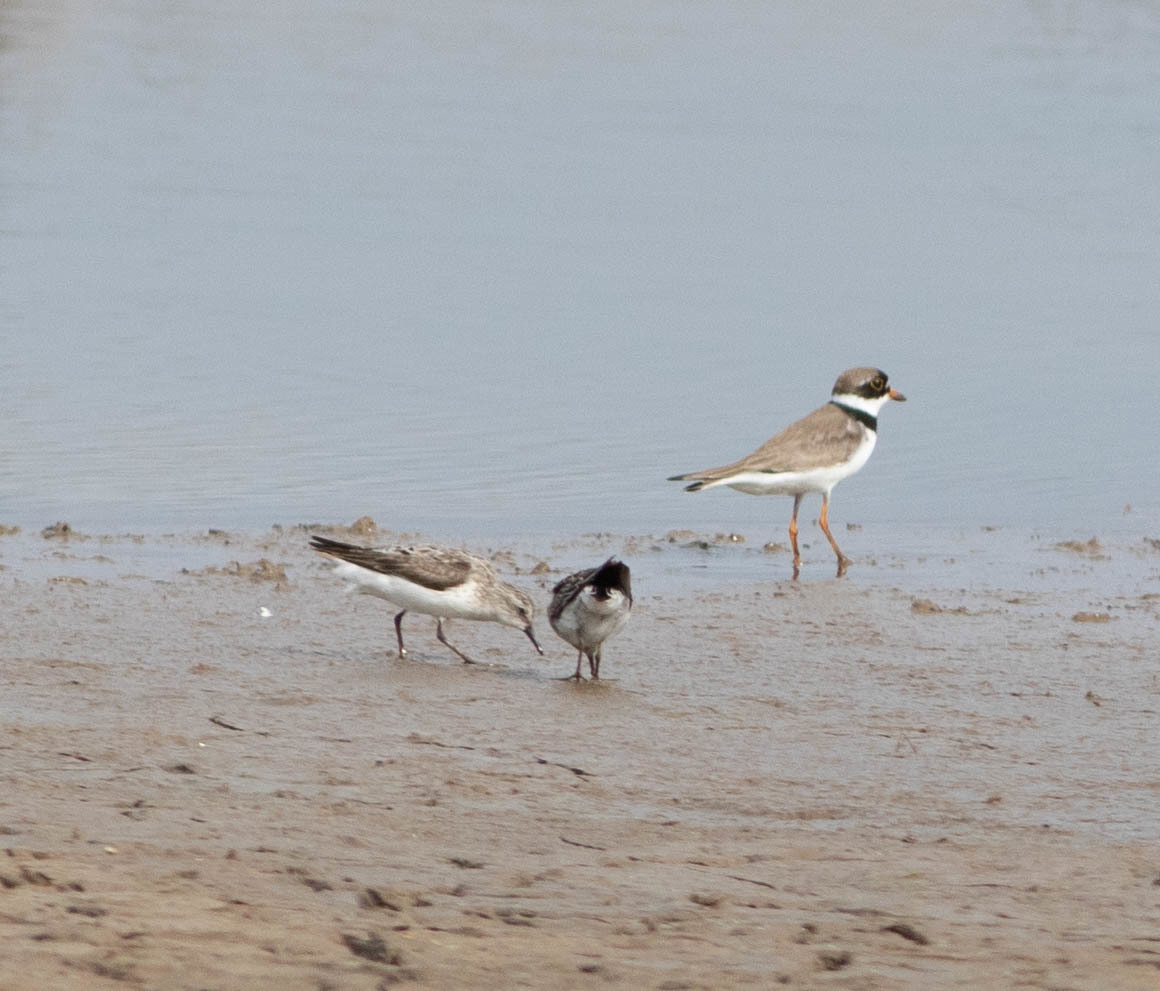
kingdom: Animalia
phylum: Chordata
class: Aves
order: Charadriiformes
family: Charadriidae
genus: Charadrius
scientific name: Charadrius semipalmatus
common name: Semipalmated plover
